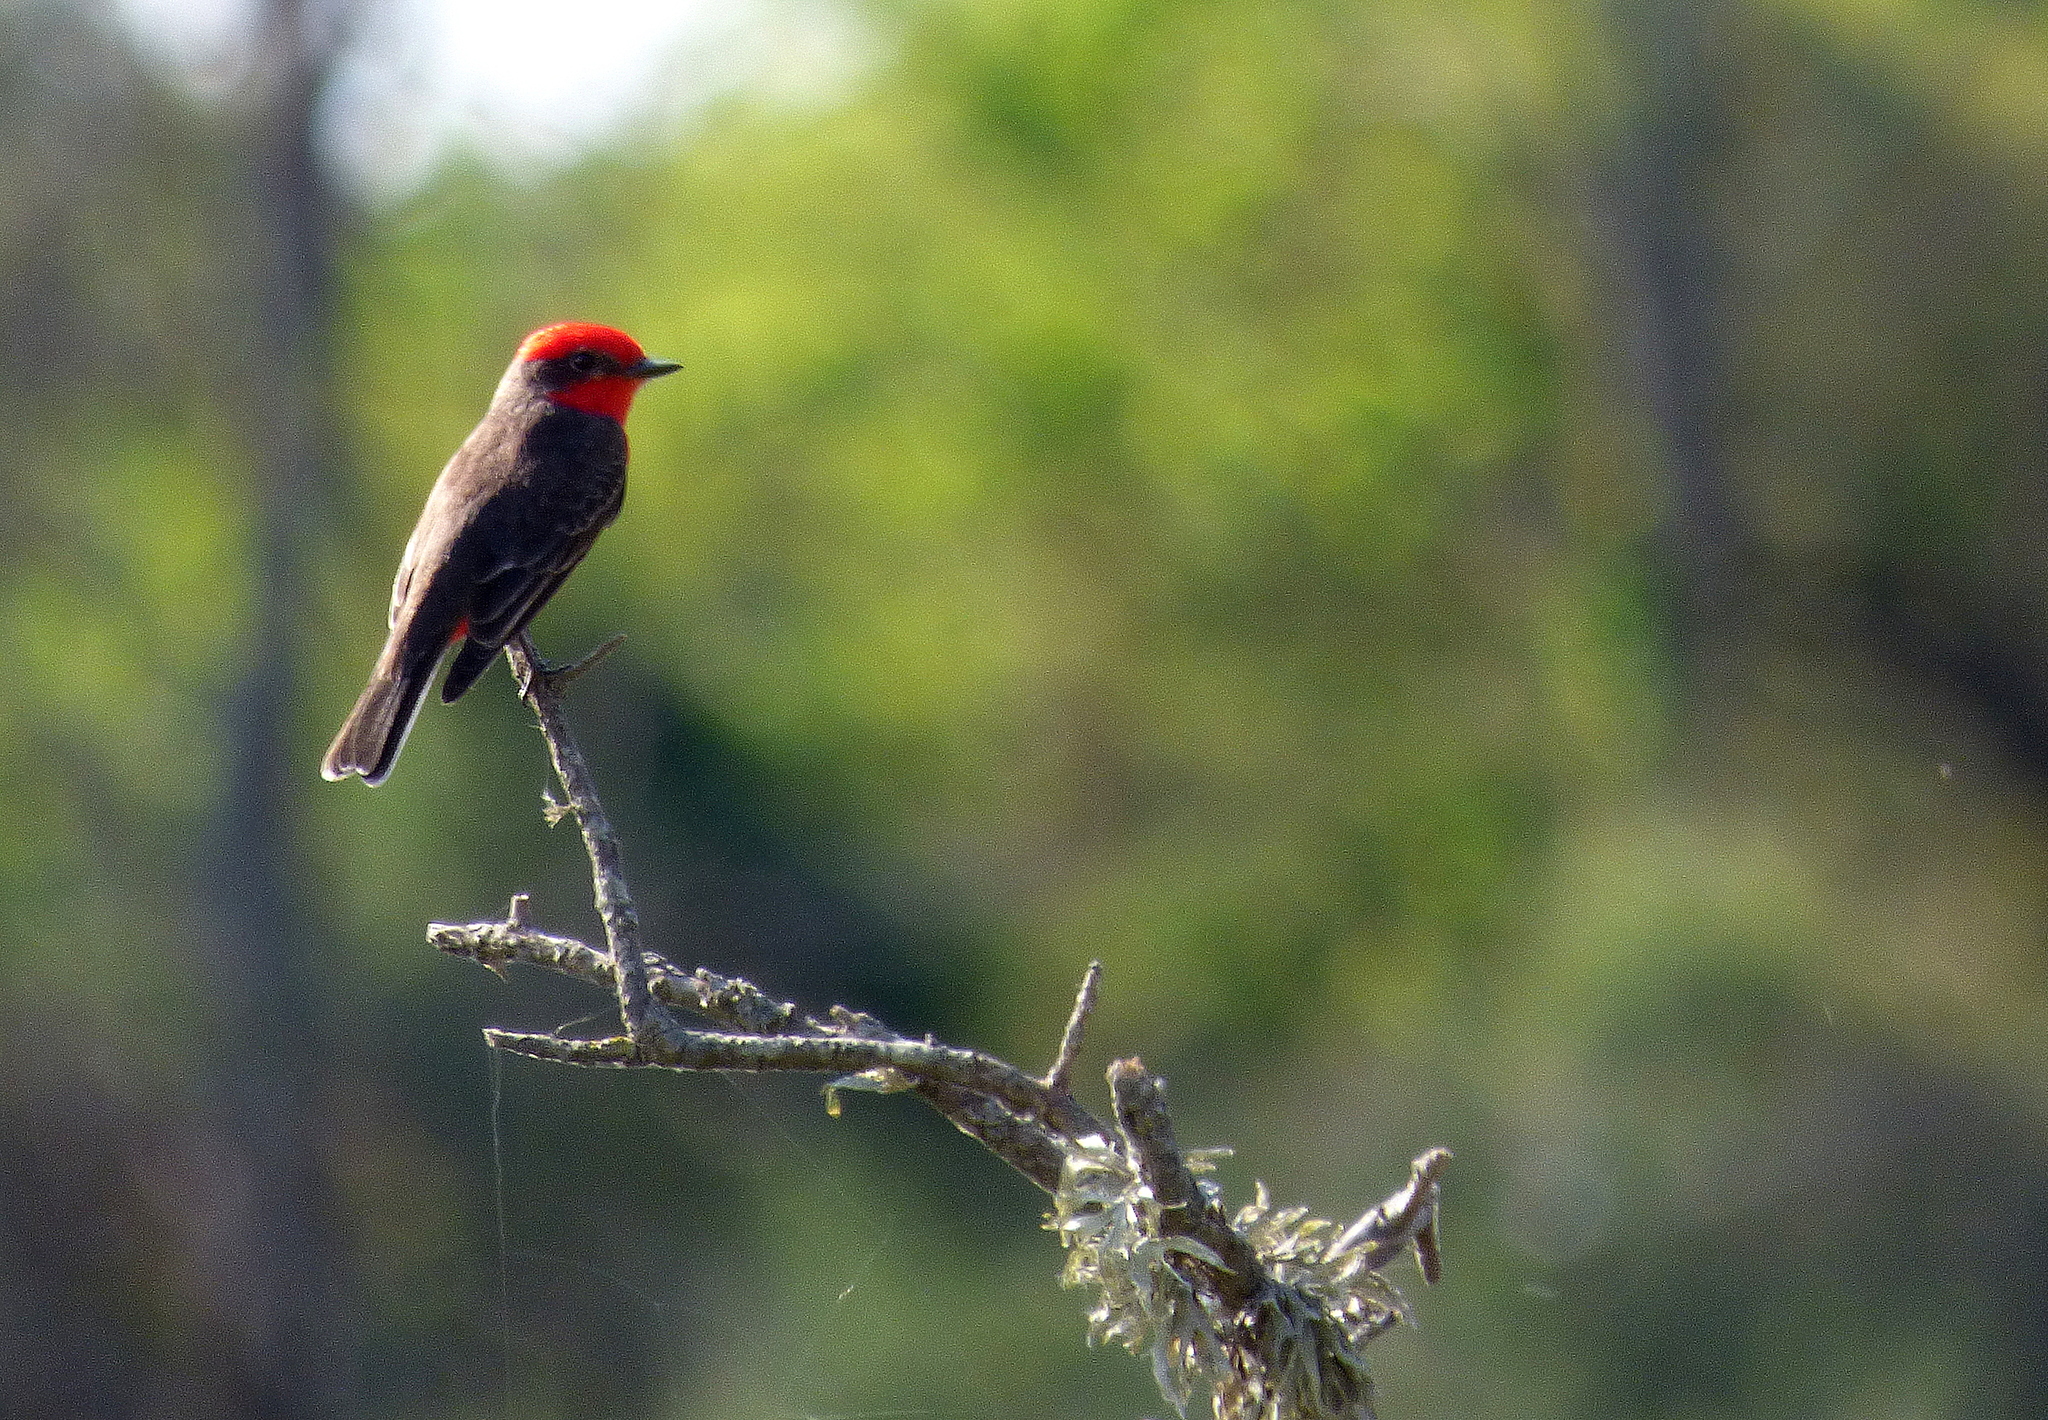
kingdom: Animalia
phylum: Chordata
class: Aves
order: Passeriformes
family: Tyrannidae
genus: Pyrocephalus
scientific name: Pyrocephalus rubinus
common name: Vermilion flycatcher
